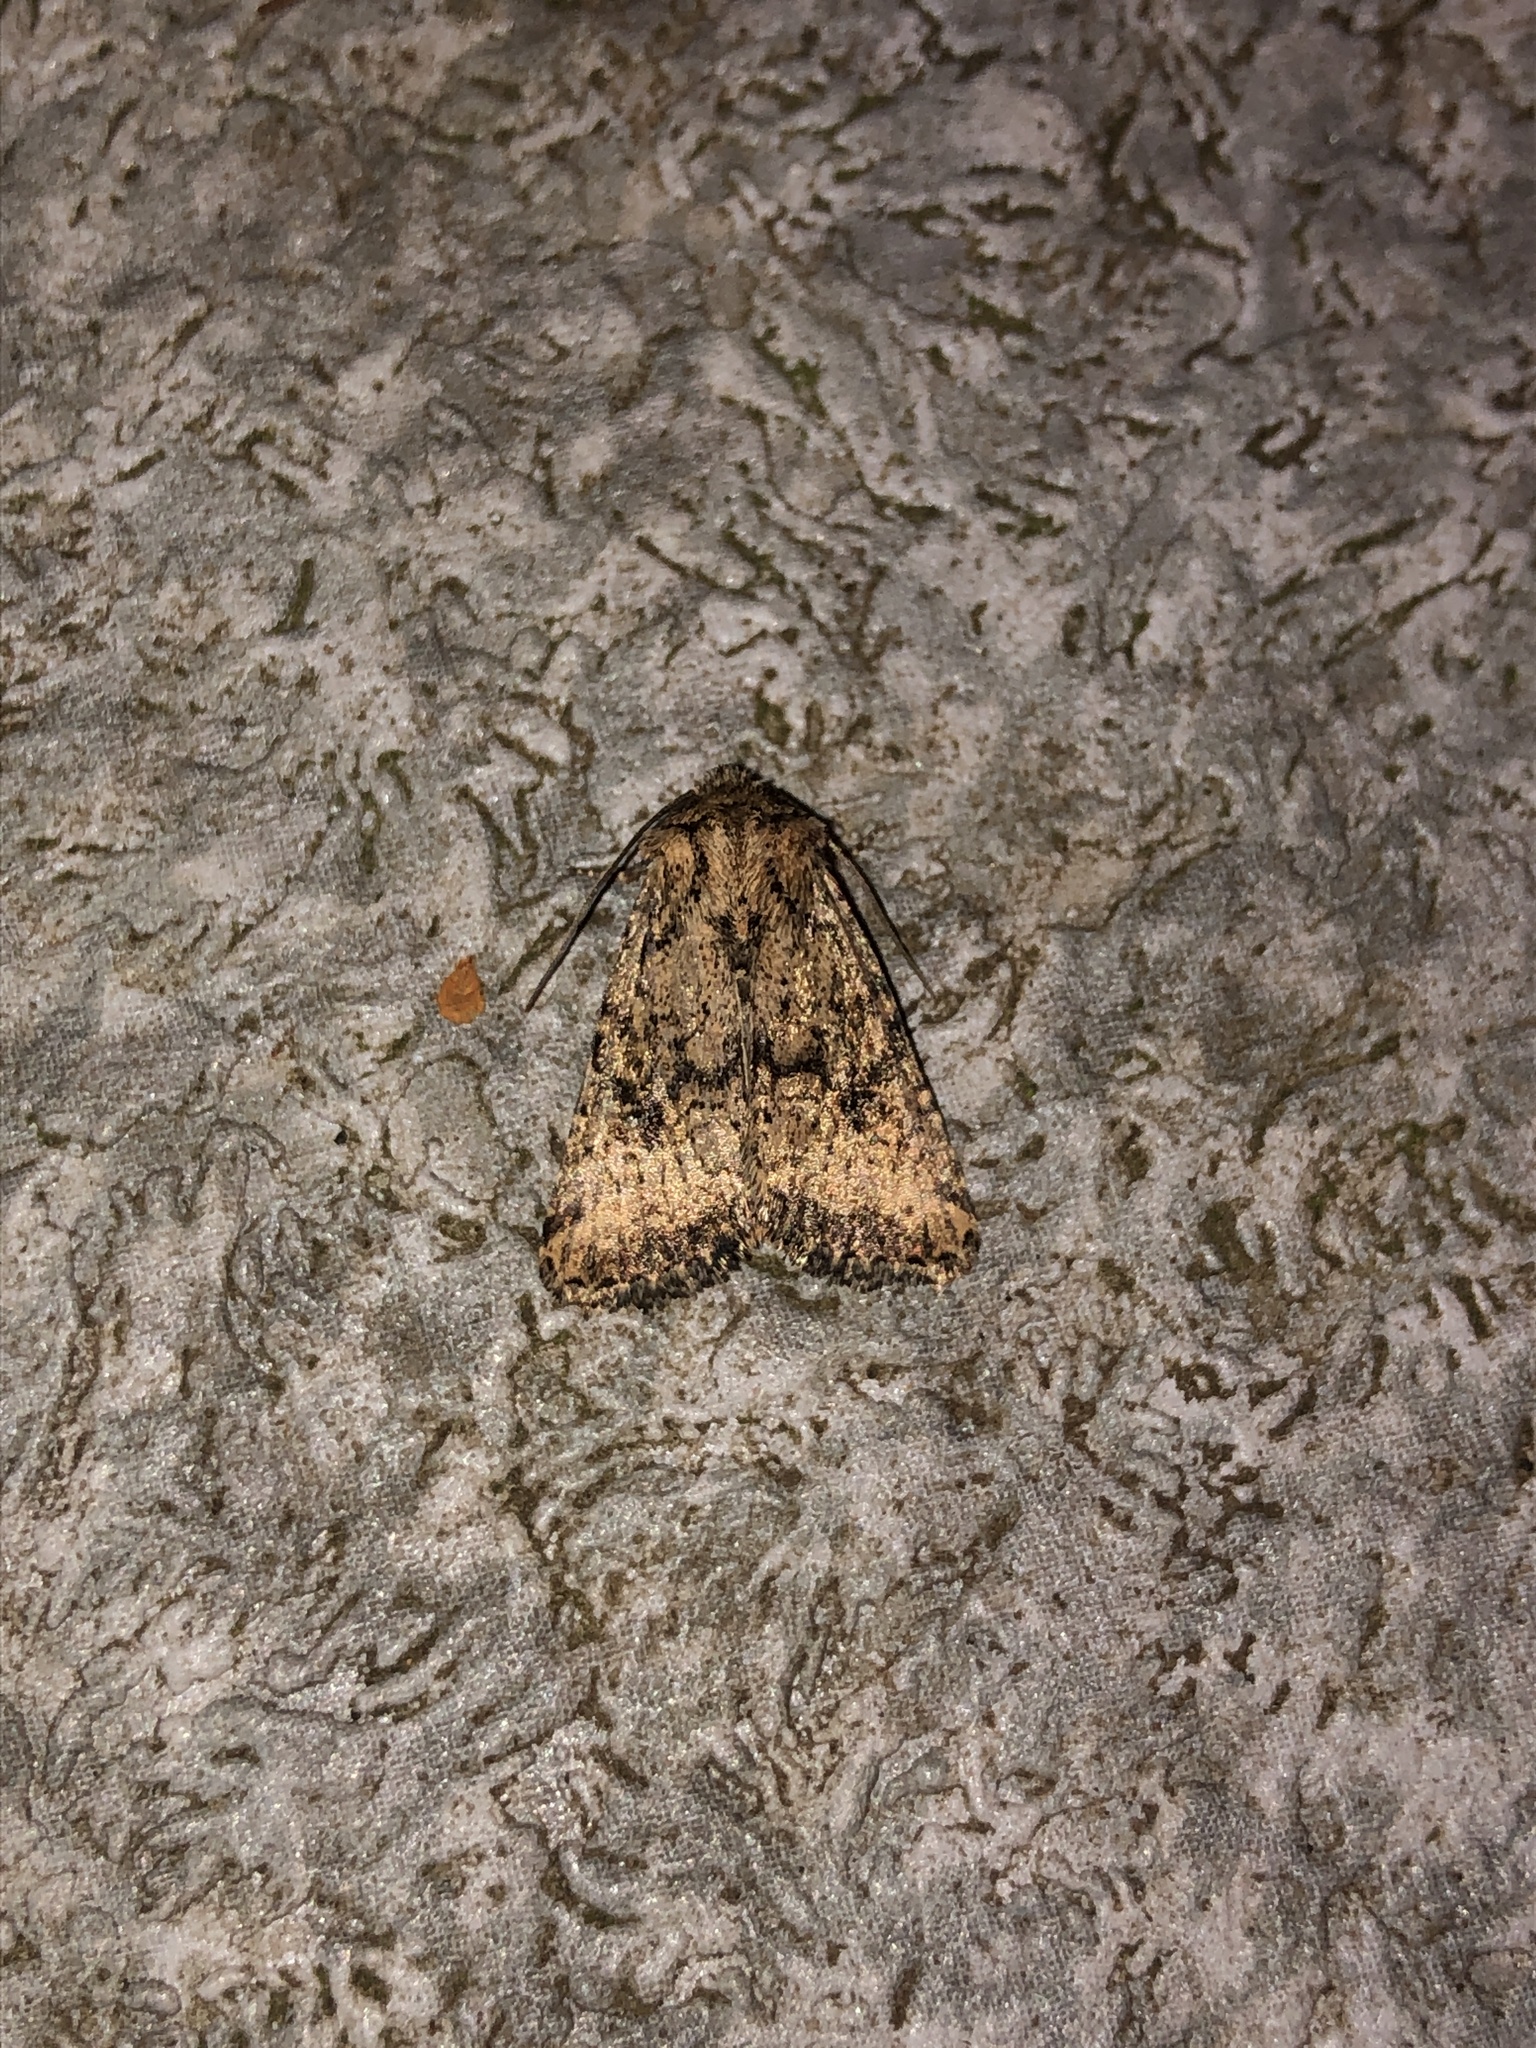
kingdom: Animalia
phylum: Arthropoda
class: Insecta
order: Lepidoptera
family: Noctuidae
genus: Homorthodes
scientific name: Homorthodes hanhami
